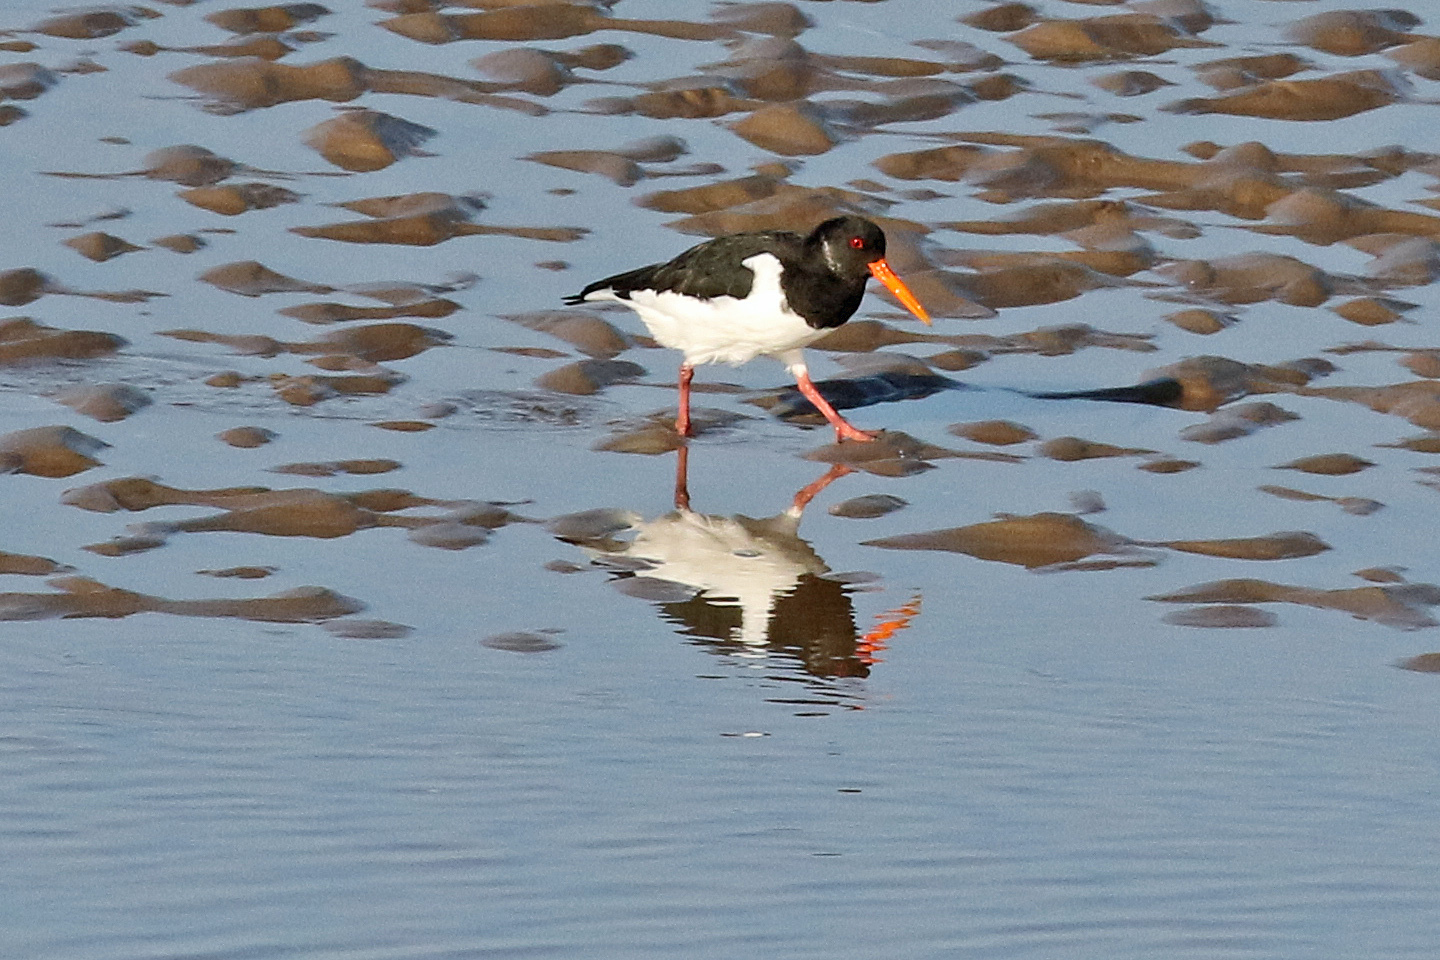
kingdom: Animalia
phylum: Chordata
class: Aves
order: Charadriiformes
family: Haematopodidae
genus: Haematopus
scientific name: Haematopus ostralegus
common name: Eurasian oystercatcher
